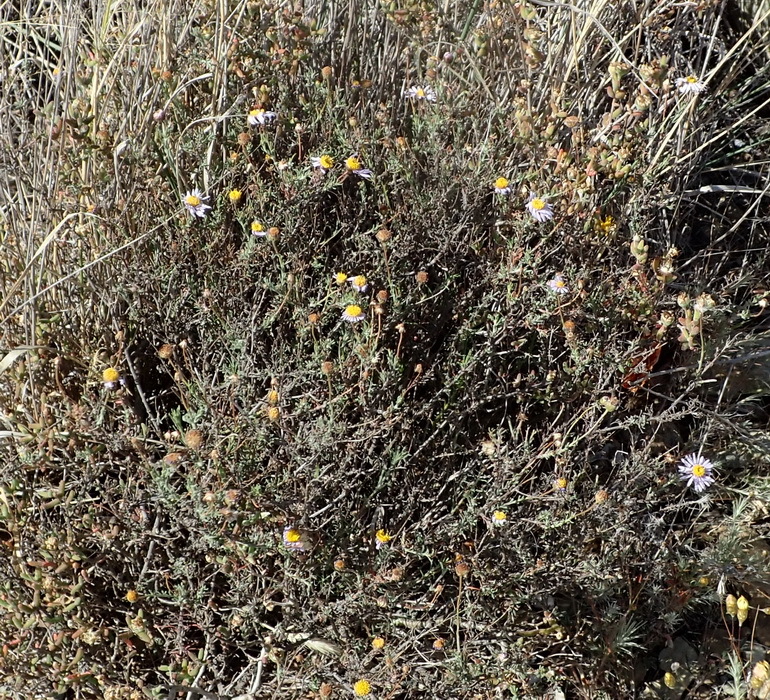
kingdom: Plantae
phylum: Tracheophyta
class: Magnoliopsida
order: Asterales
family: Asteraceae
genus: Felicia
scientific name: Felicia muricata
